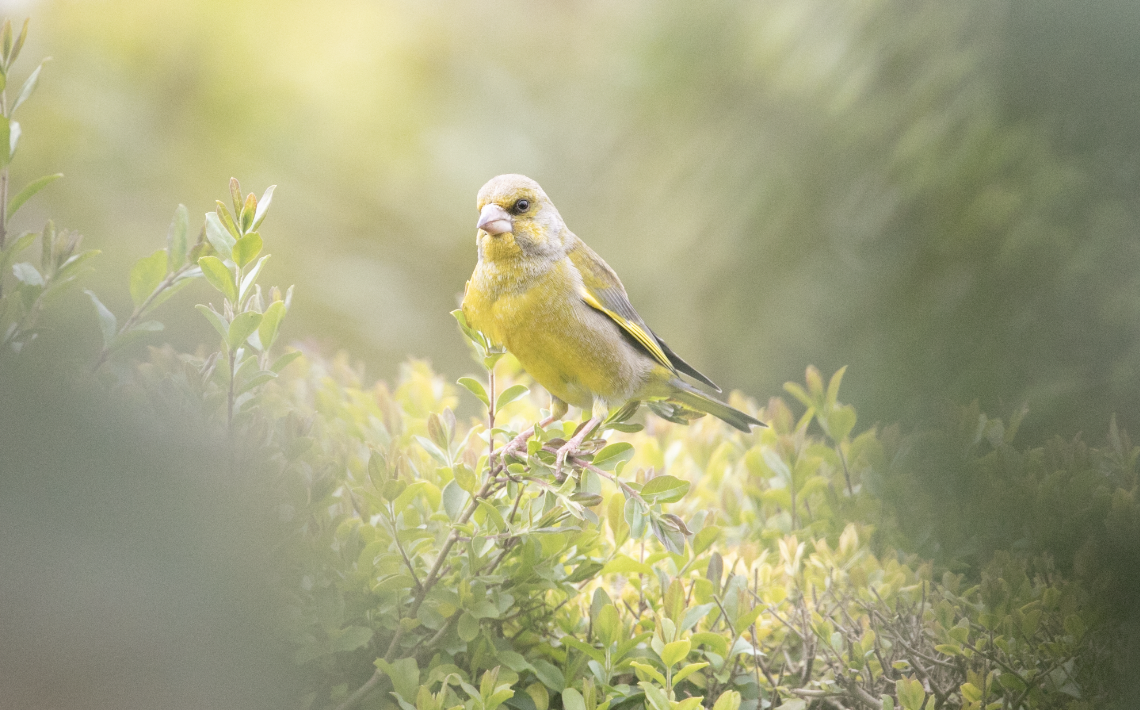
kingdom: Plantae
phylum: Tracheophyta
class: Liliopsida
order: Poales
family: Poaceae
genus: Chloris
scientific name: Chloris chloris
